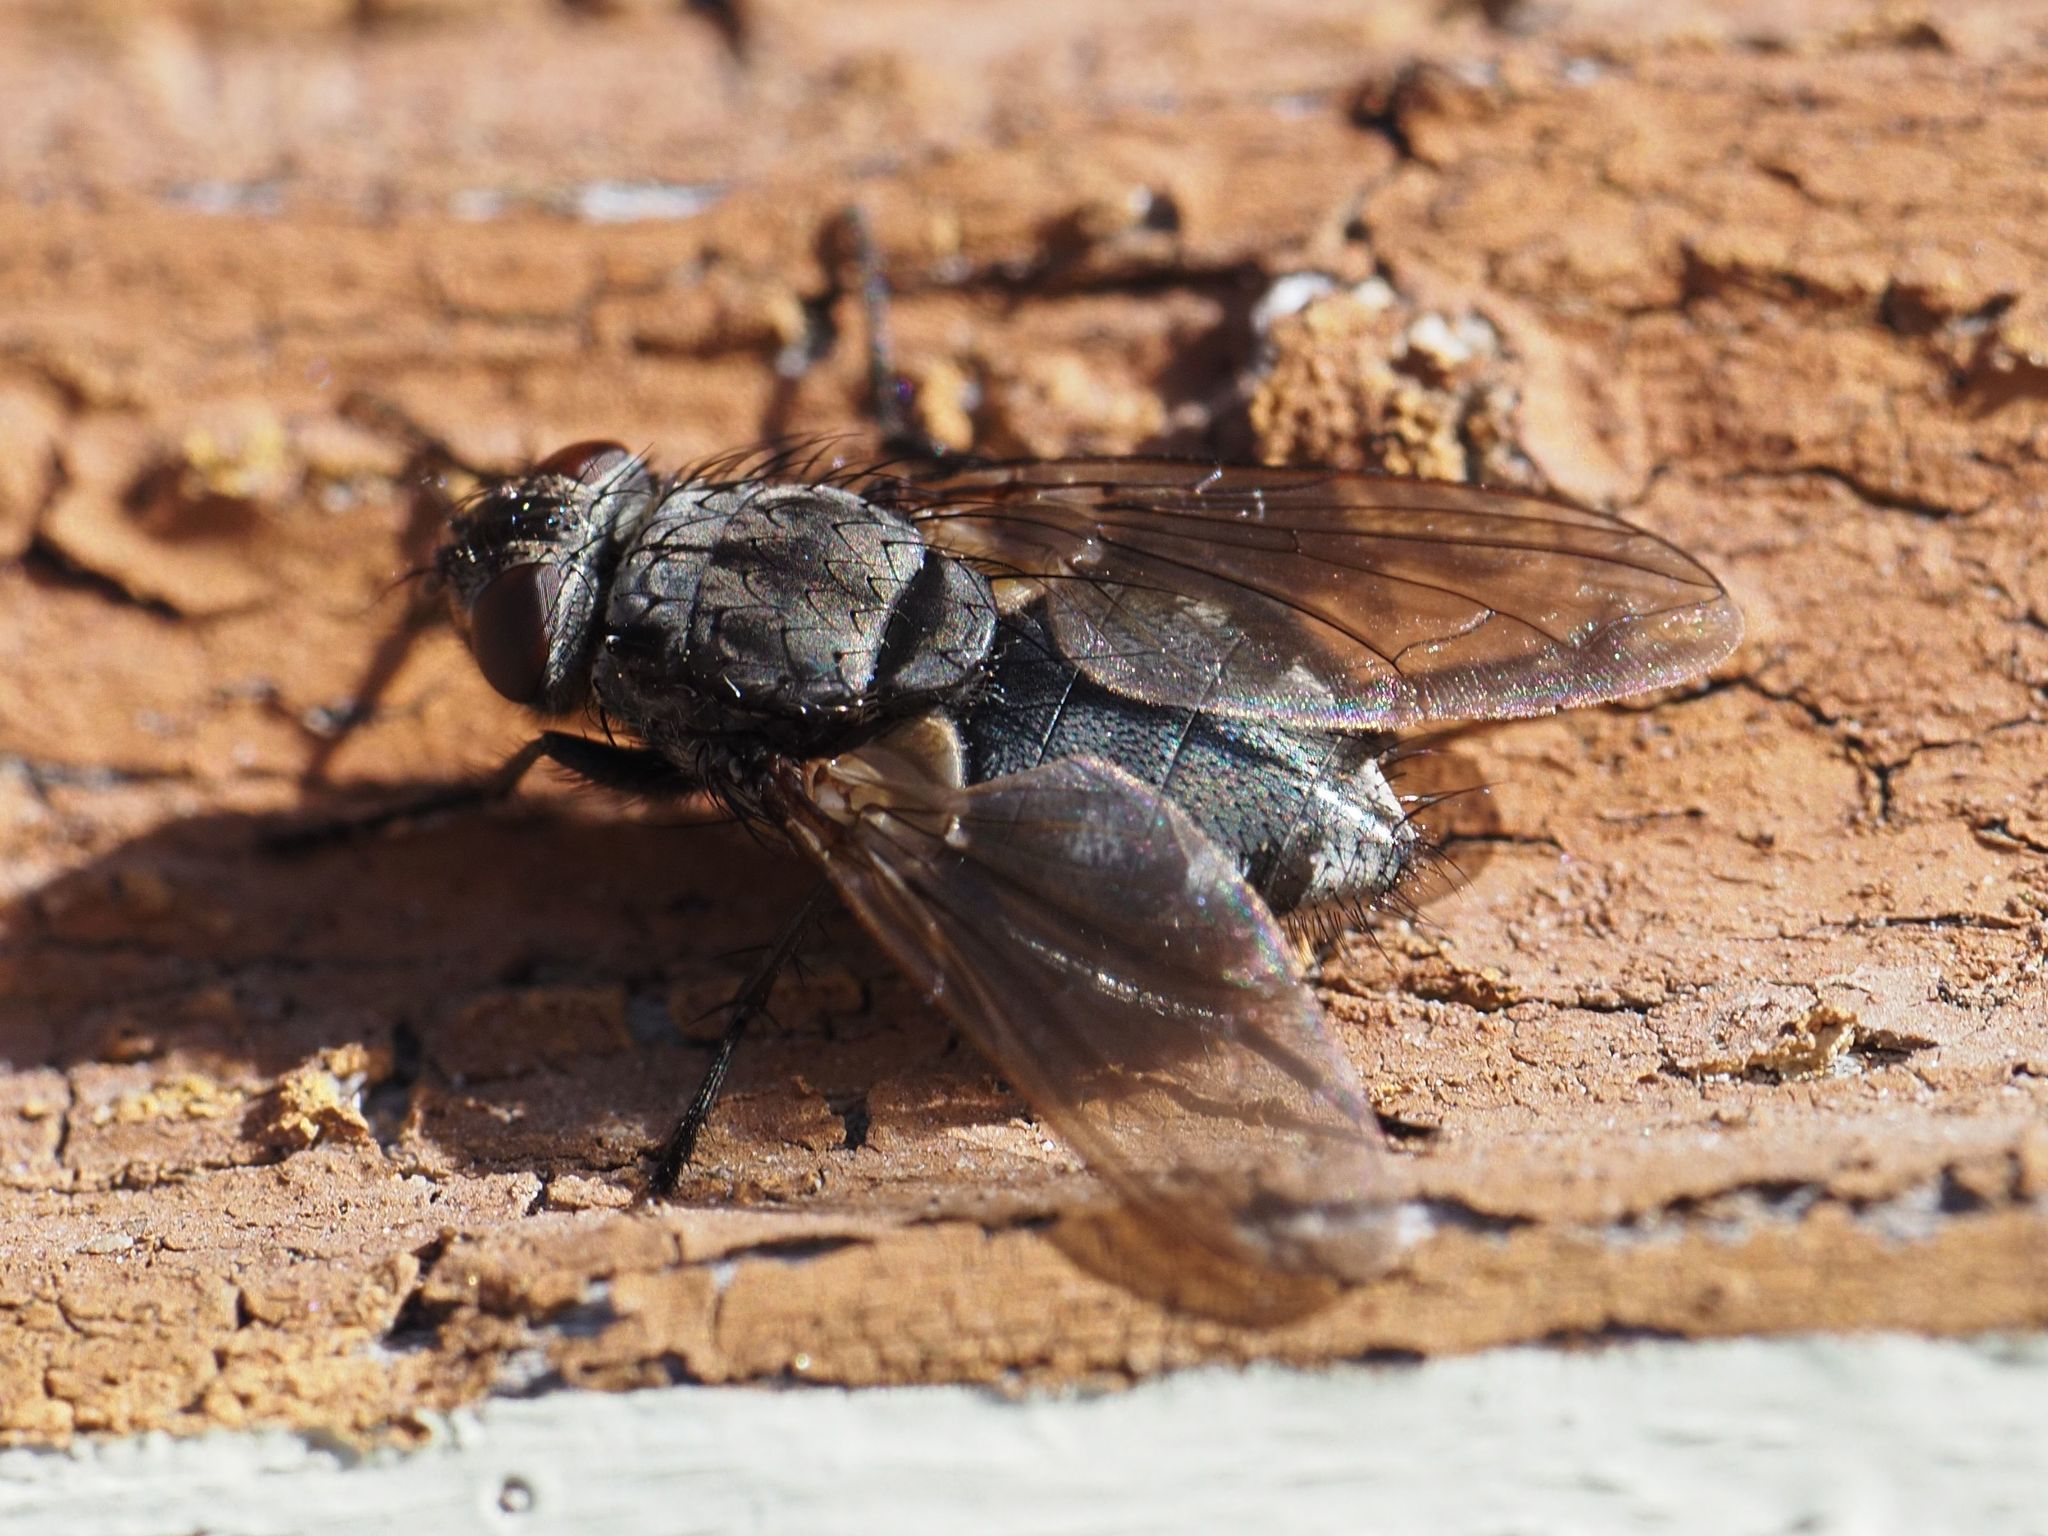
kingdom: Animalia
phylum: Arthropoda
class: Insecta
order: Diptera
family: Polleniidae
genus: Pollenia
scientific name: Pollenia vagabunda
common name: Vagabund cluster fly
